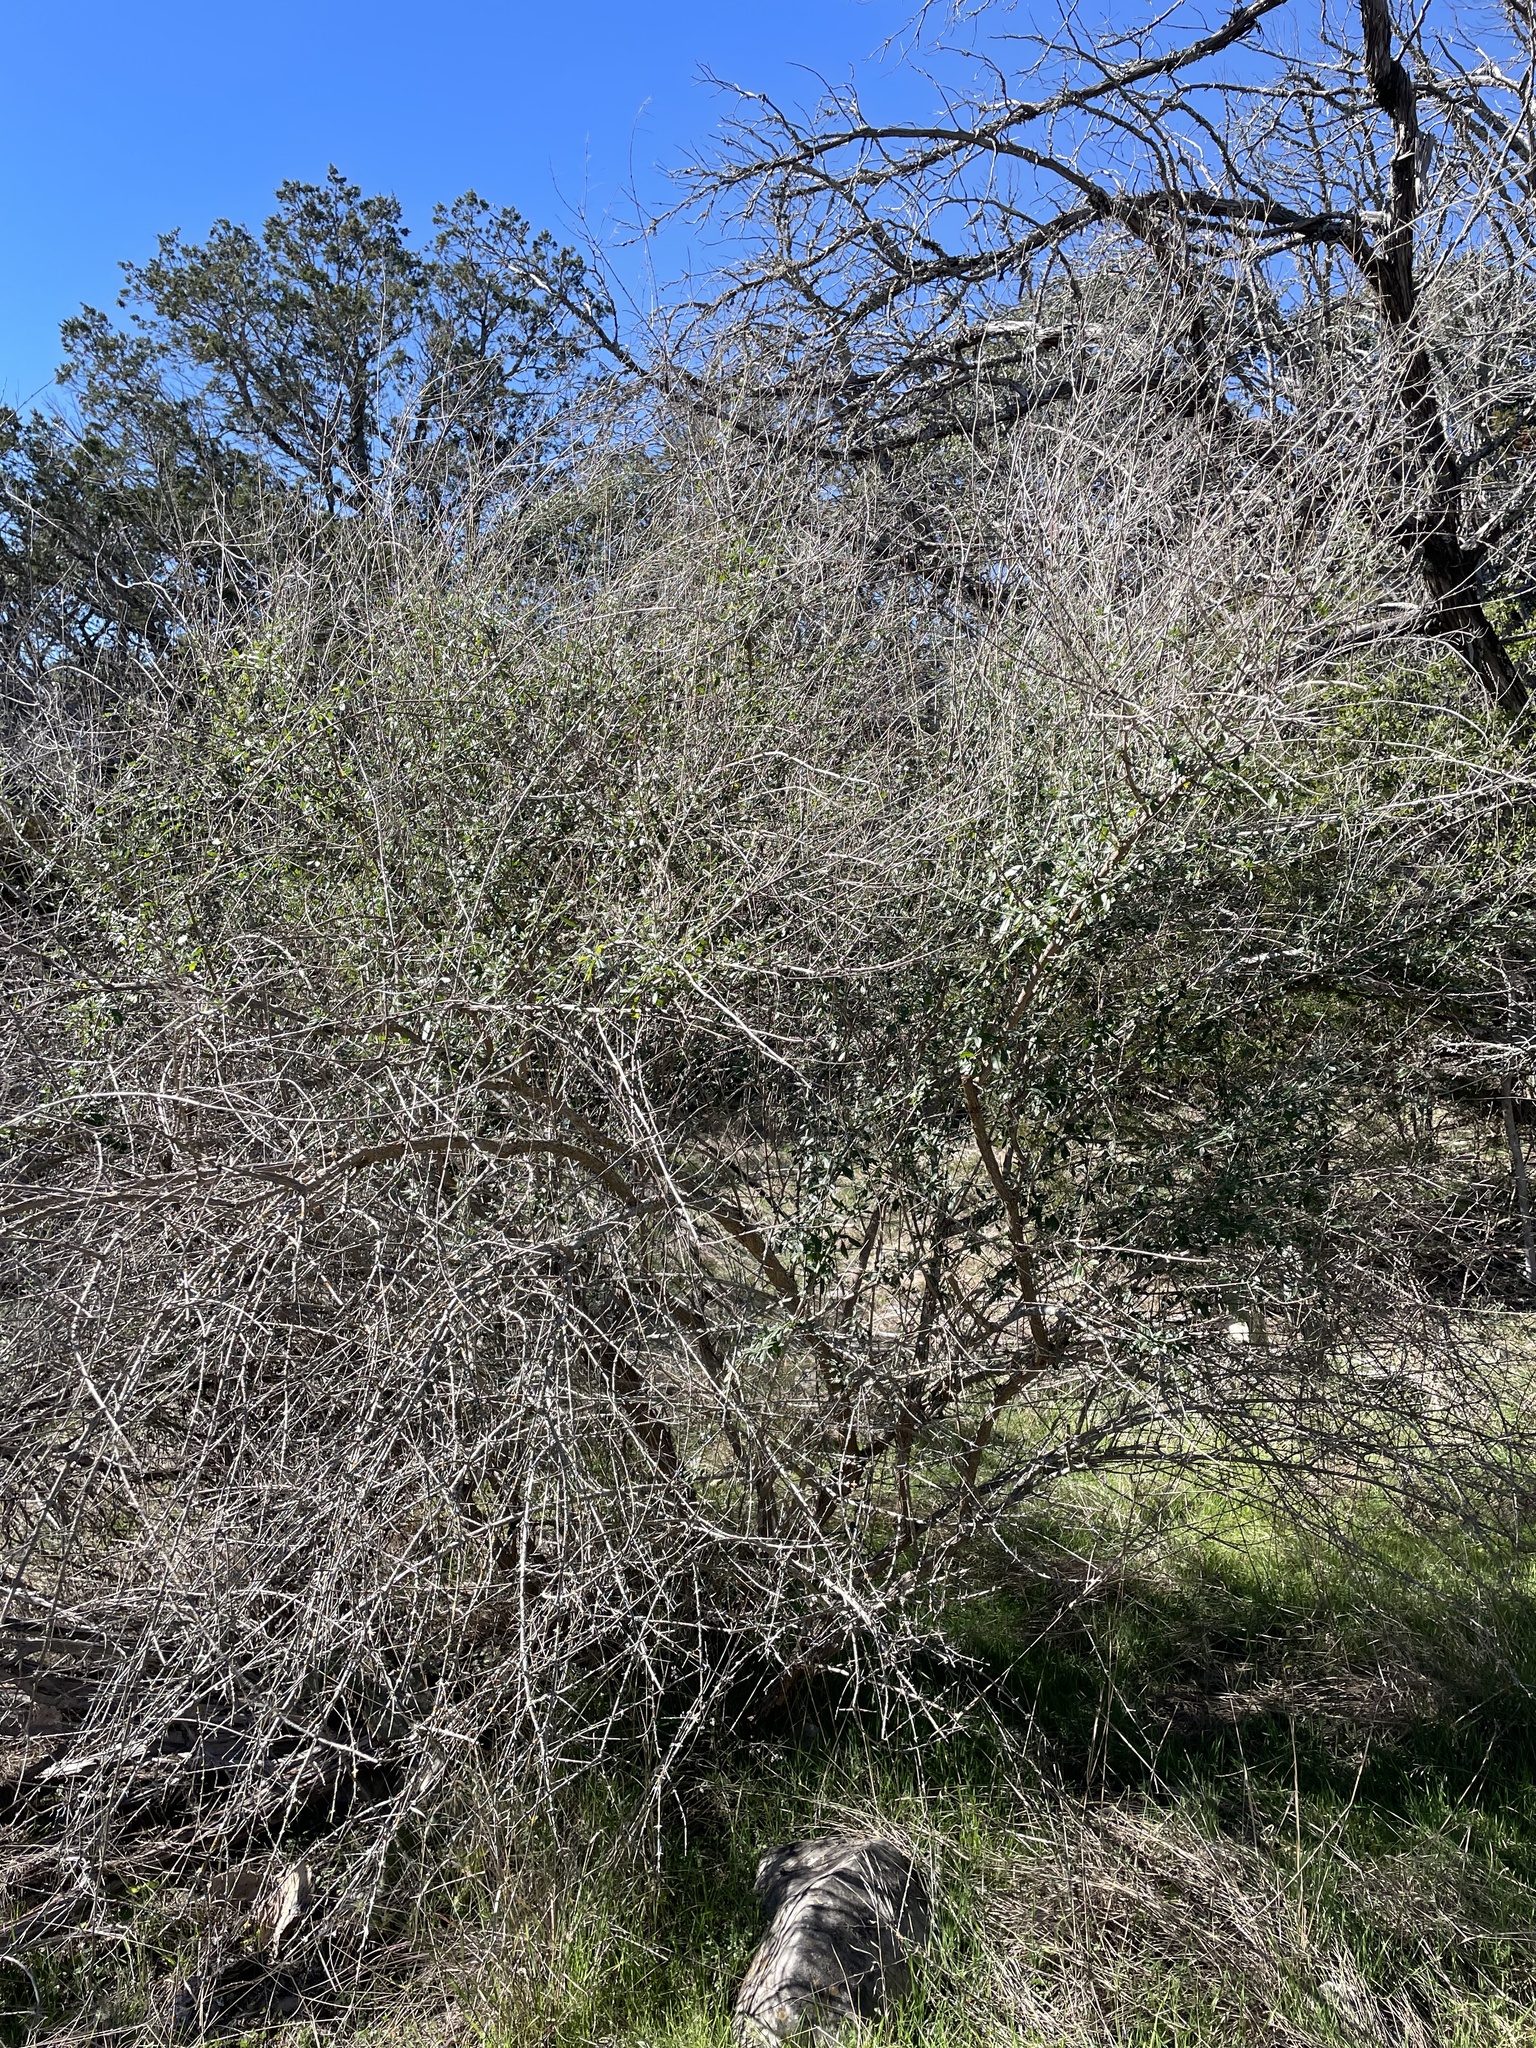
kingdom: Plantae
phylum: Tracheophyta
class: Magnoliopsida
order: Lamiales
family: Verbenaceae
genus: Aloysia
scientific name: Aloysia gratissima
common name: Common bee-brush
